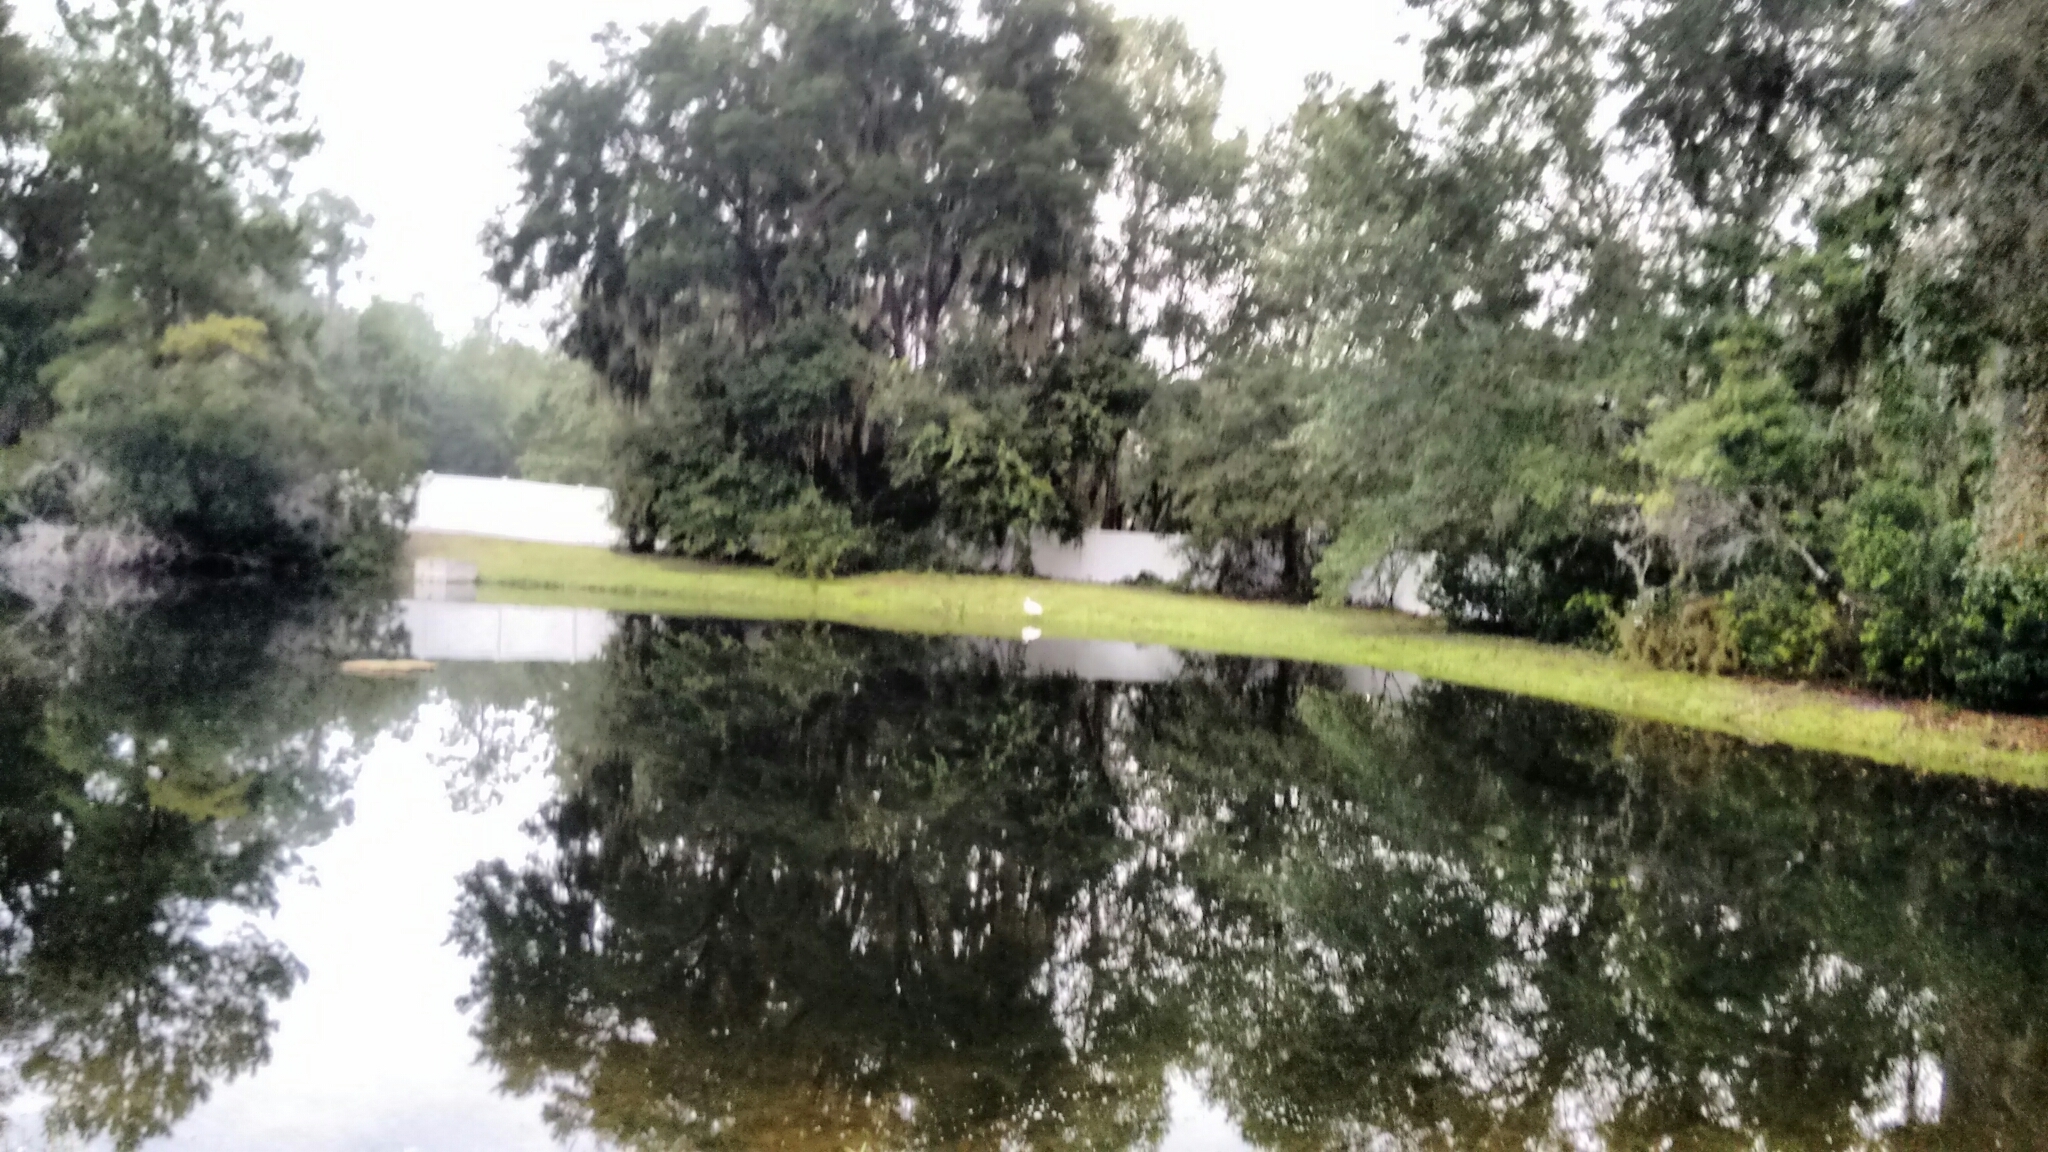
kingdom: Animalia
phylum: Chordata
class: Aves
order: Pelecaniformes
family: Ardeidae
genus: Ardea
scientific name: Ardea alba
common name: Great egret
